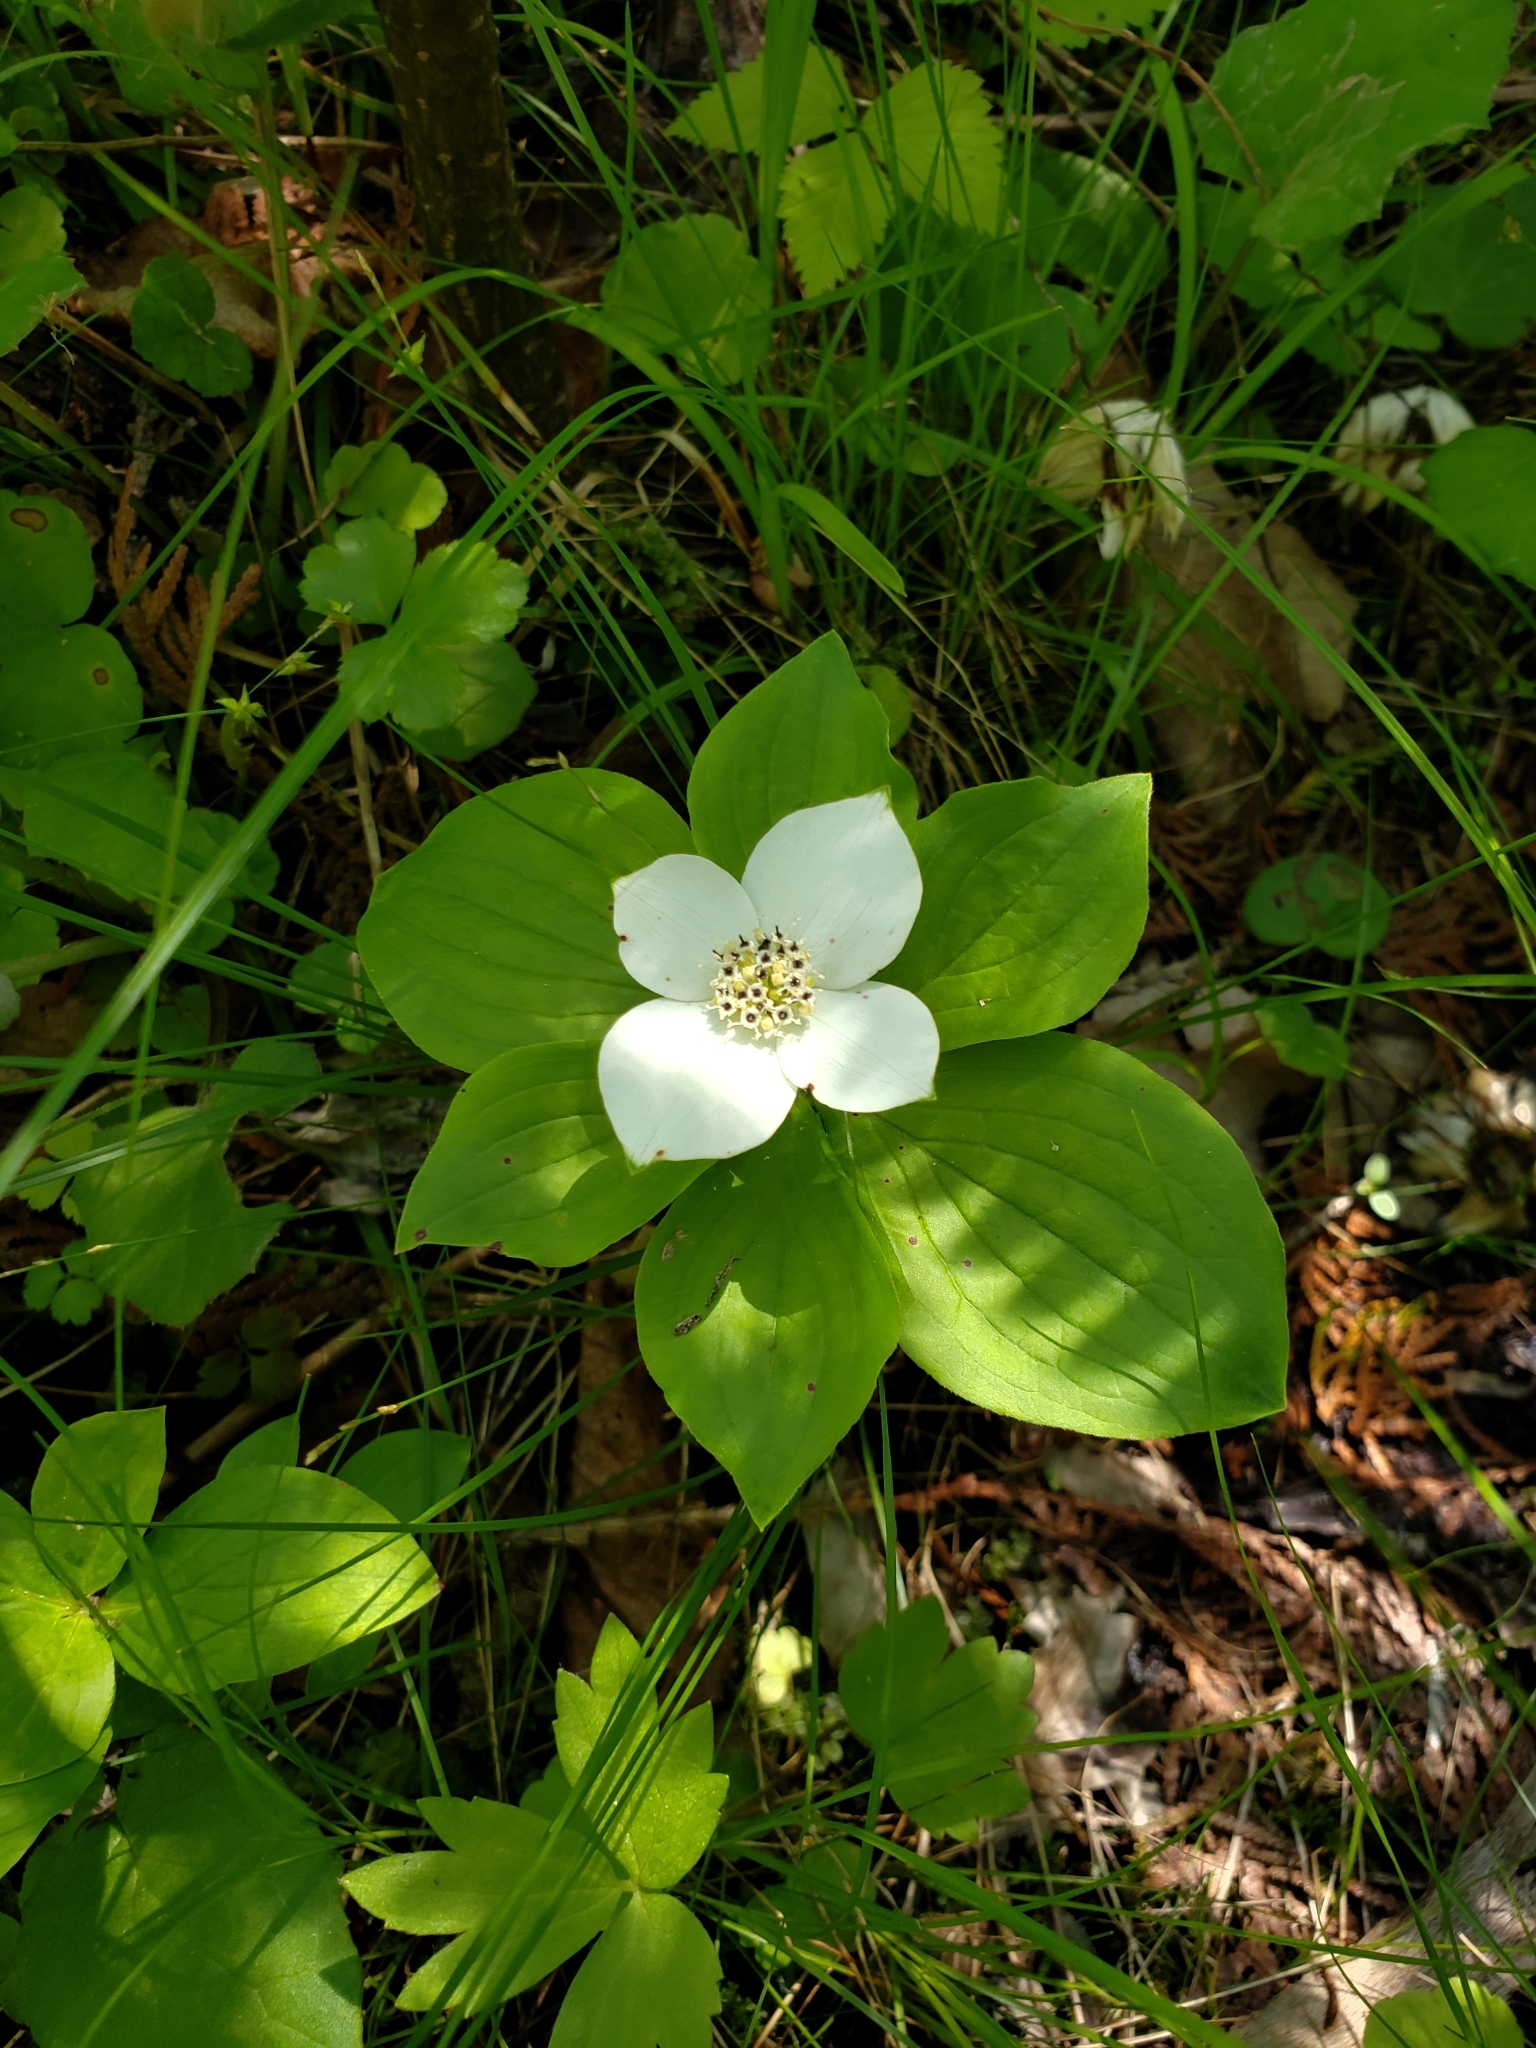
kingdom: Plantae
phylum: Tracheophyta
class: Magnoliopsida
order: Cornales
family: Cornaceae
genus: Cornus
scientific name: Cornus canadensis
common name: Creeping dogwood
